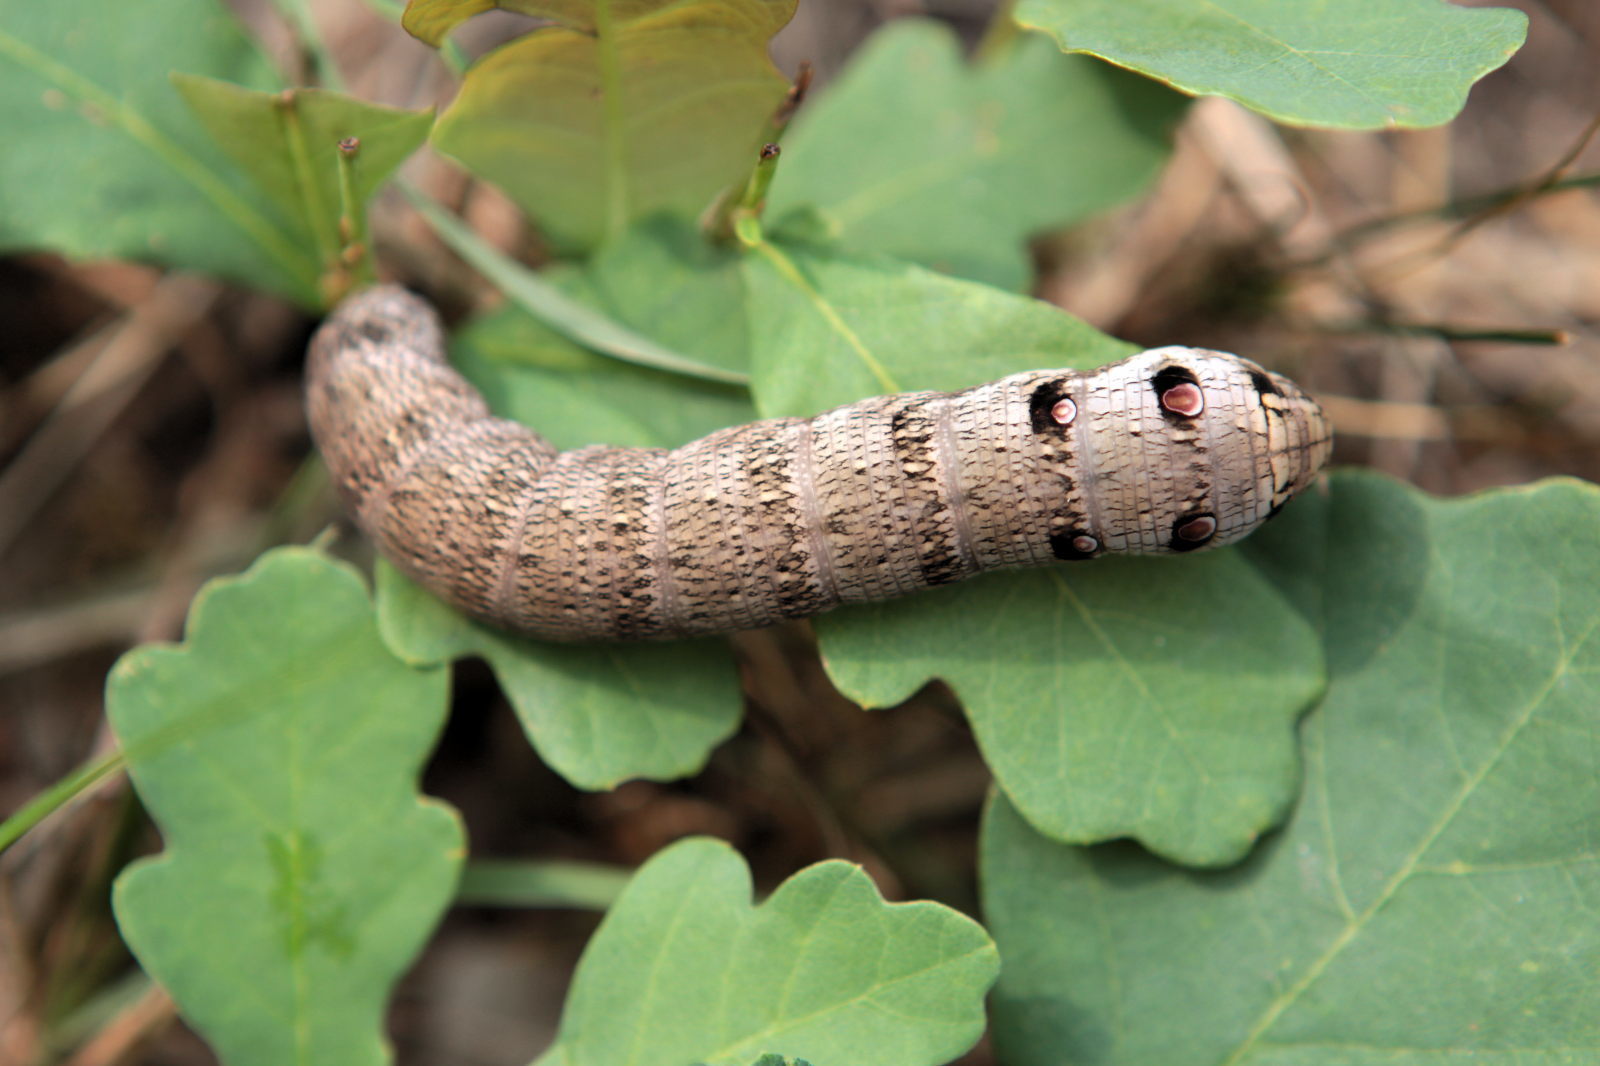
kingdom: Animalia
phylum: Arthropoda
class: Insecta
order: Lepidoptera
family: Sphingidae
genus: Deilephila
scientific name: Deilephila porcellus
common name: Small elephant hawk-moth
